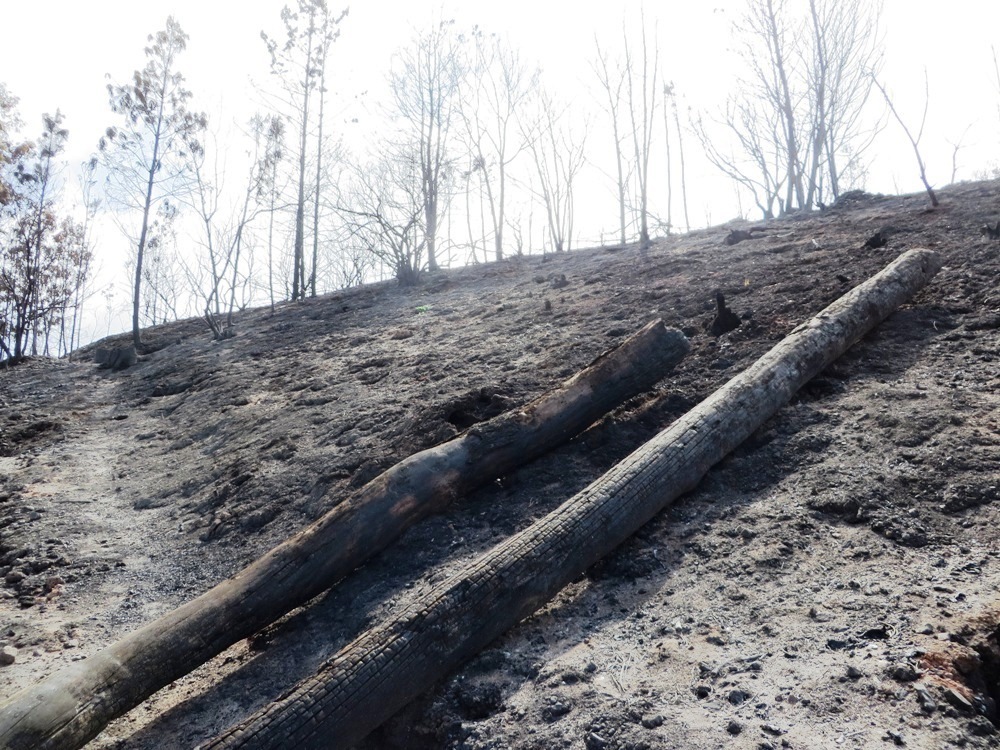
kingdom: Plantae
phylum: Tracheophyta
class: Pinopsida
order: Pinales
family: Pinaceae
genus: Pinus
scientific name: Pinus radiata
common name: Monterey pine
